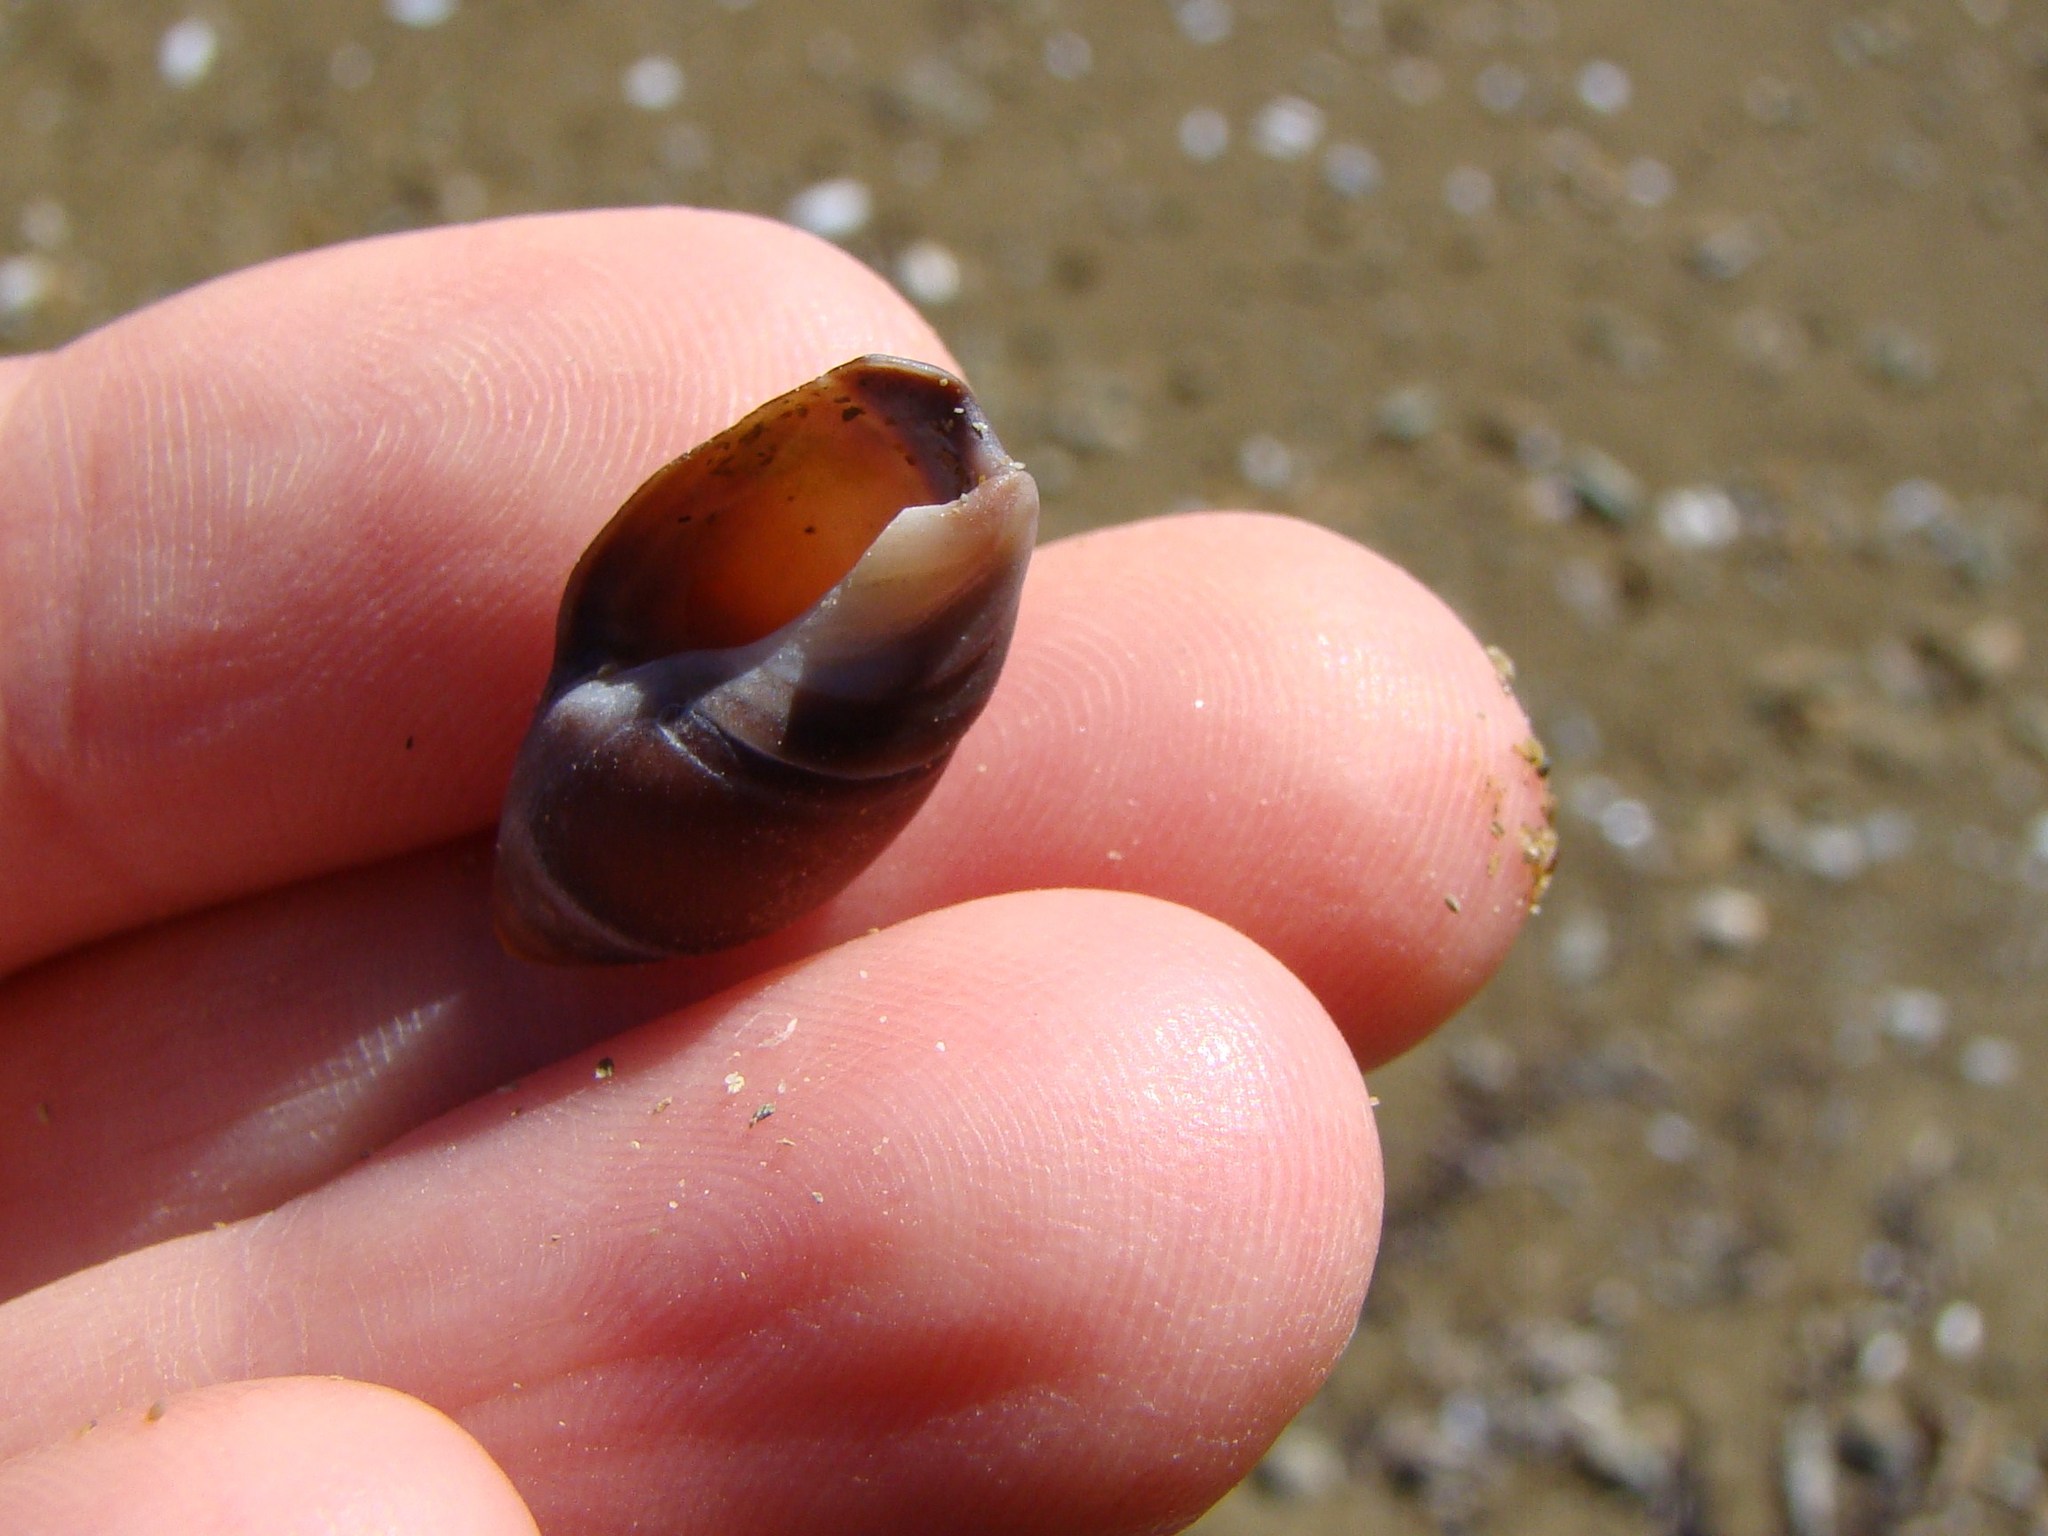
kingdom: Animalia
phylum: Mollusca
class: Gastropoda
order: Neogastropoda
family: Ancillariidae
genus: Amalda
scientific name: Amalda australis
